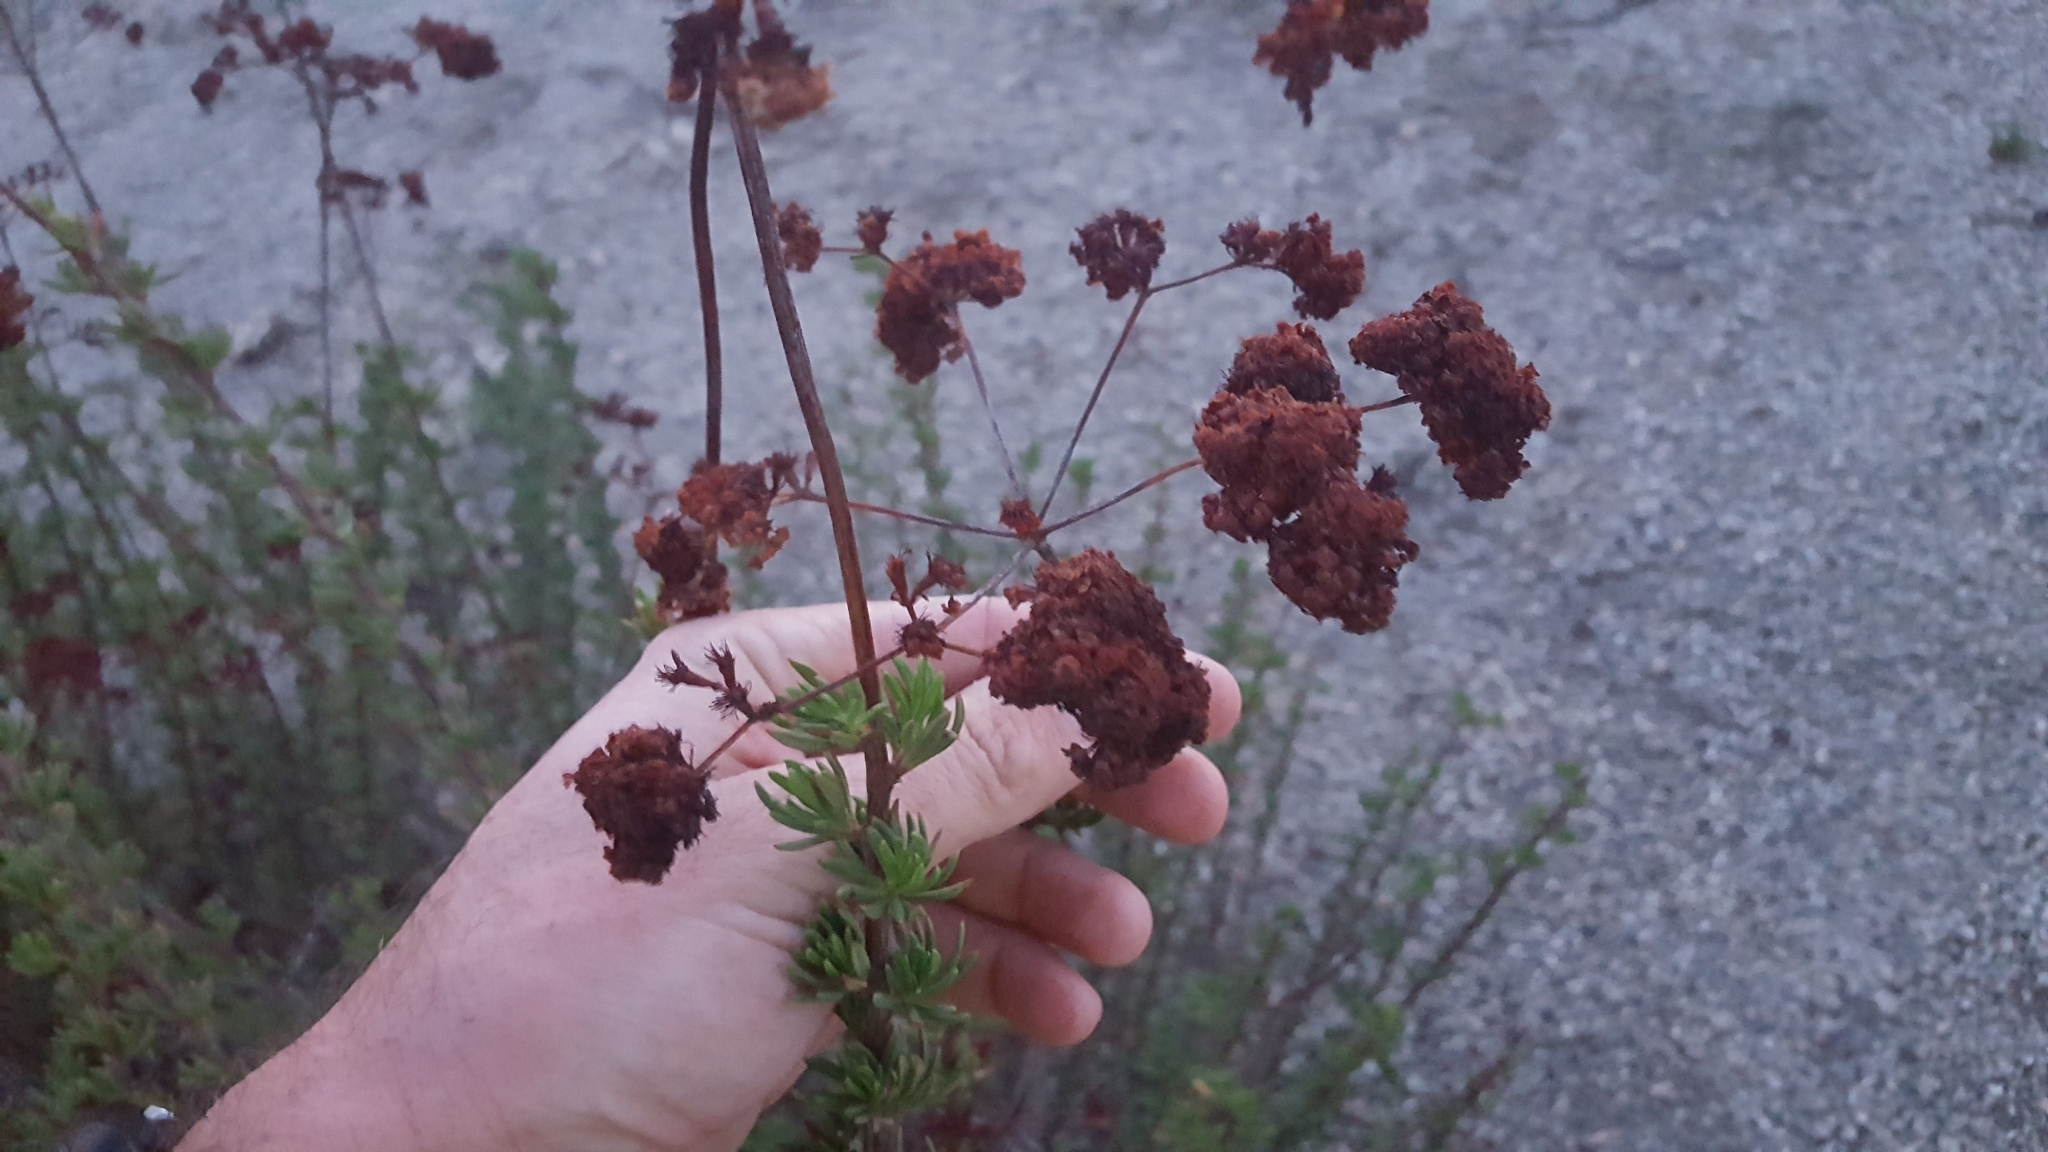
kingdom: Plantae
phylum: Tracheophyta
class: Magnoliopsida
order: Caryophyllales
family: Polygonaceae
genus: Eriogonum
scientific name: Eriogonum fasciculatum
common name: California wild buckwheat
